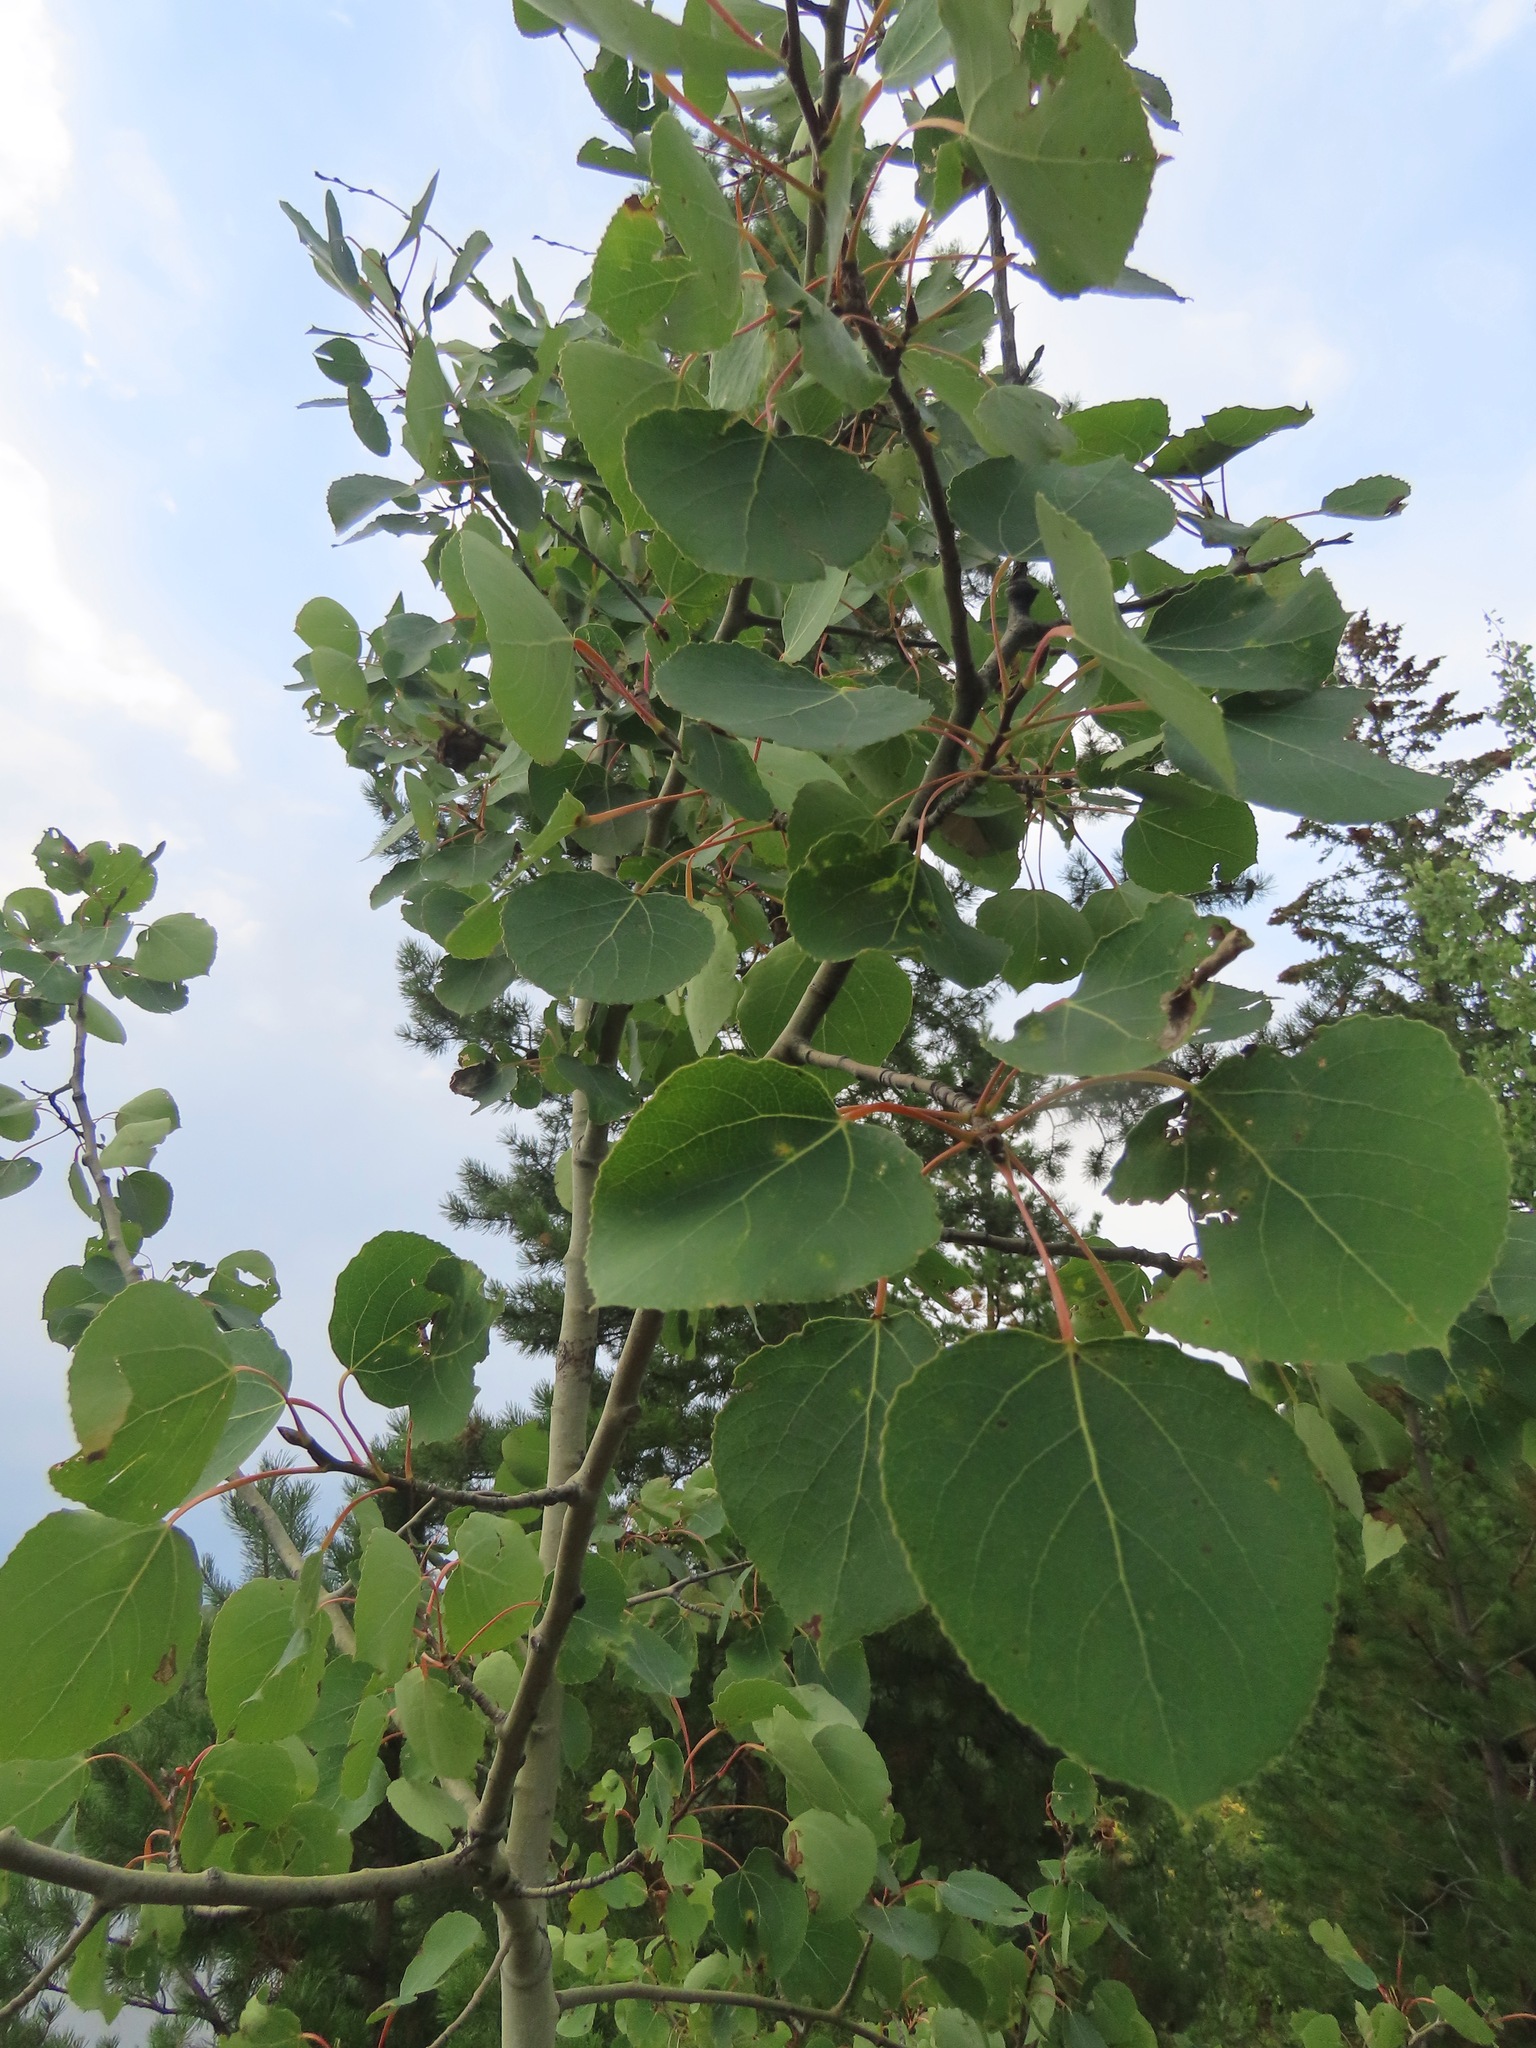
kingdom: Plantae
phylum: Tracheophyta
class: Magnoliopsida
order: Malpighiales
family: Salicaceae
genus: Populus
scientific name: Populus tremuloides
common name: Quaking aspen
